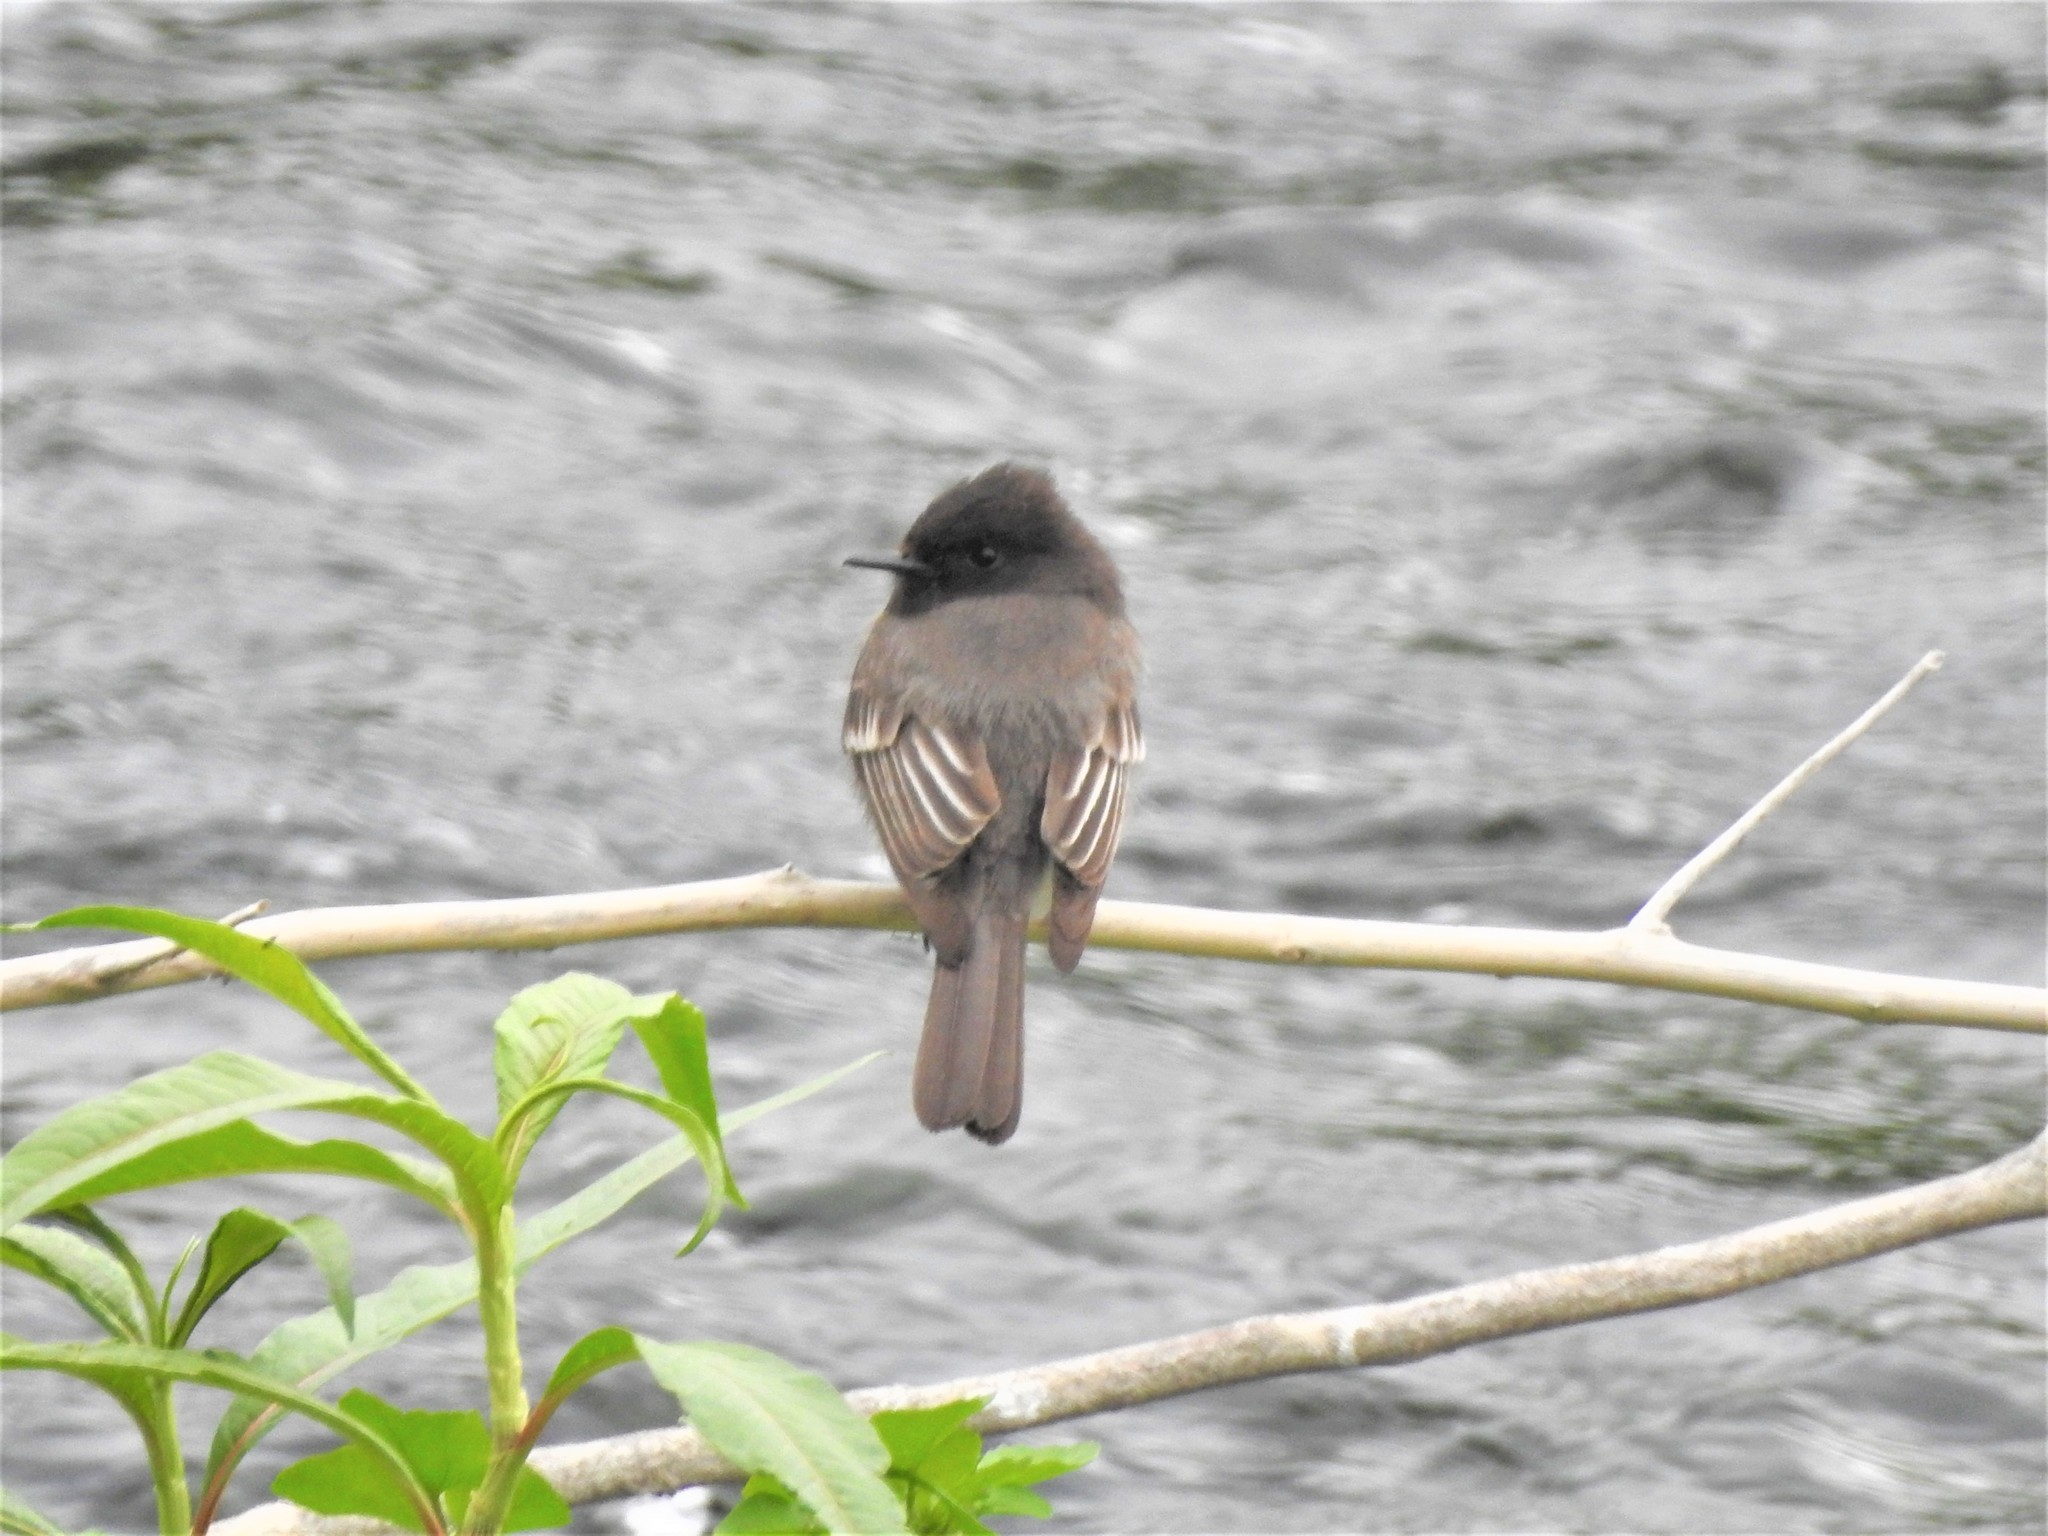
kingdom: Animalia
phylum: Chordata
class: Aves
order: Passeriformes
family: Tyrannidae
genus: Sayornis
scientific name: Sayornis nigricans
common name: Black phoebe
